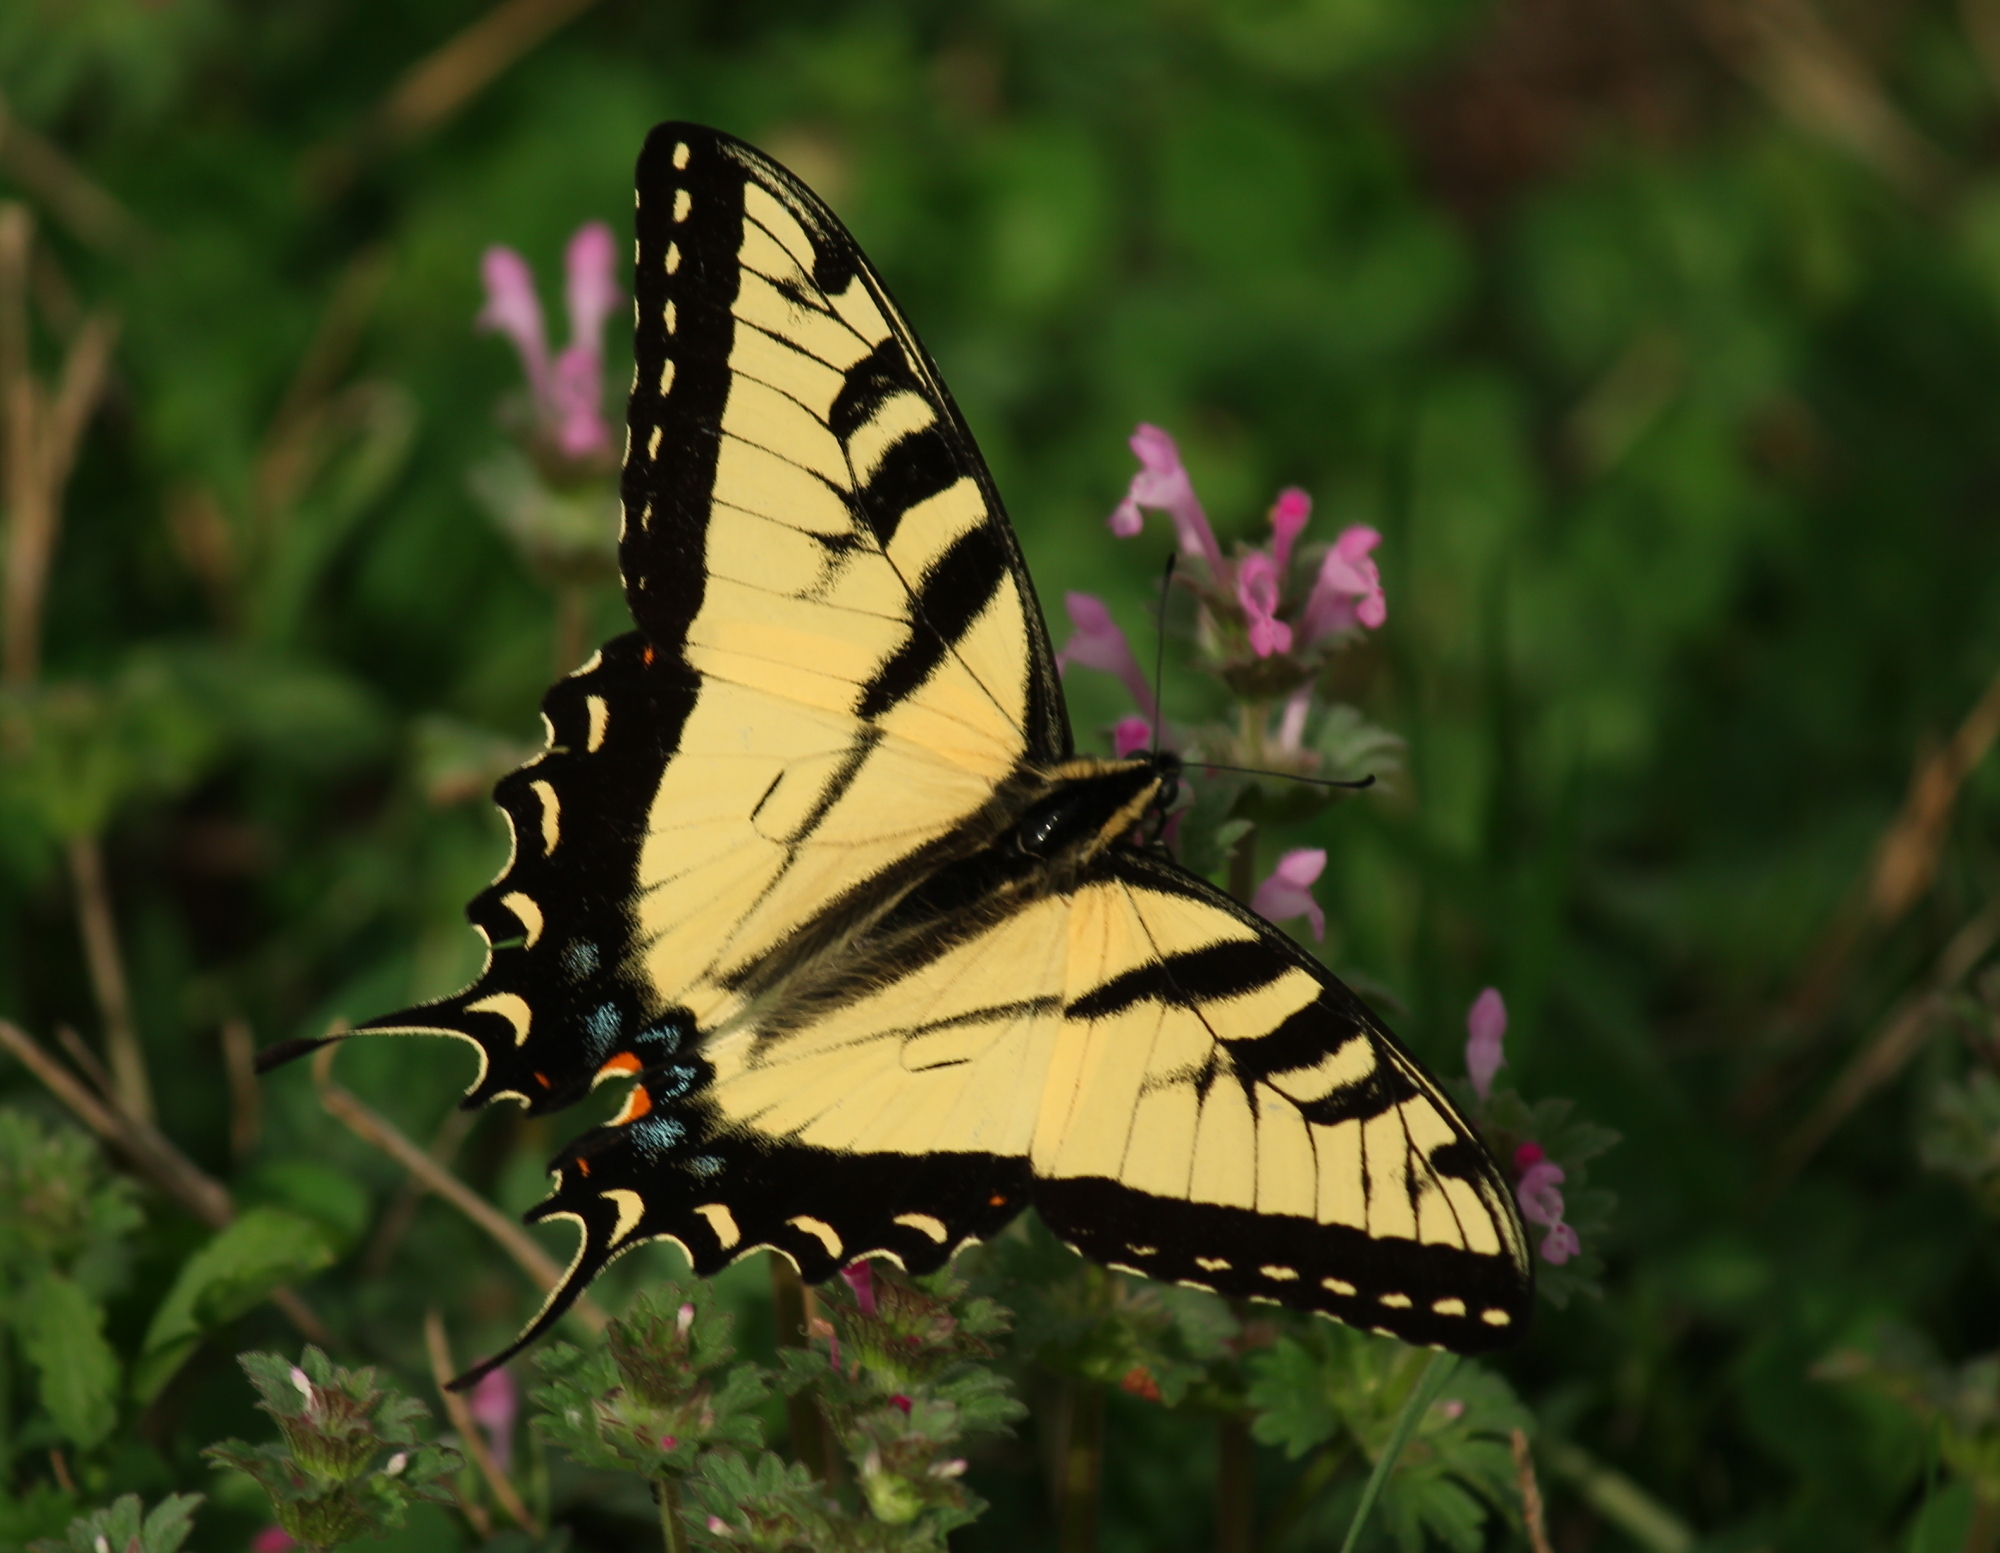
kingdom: Animalia
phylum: Arthropoda
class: Insecta
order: Lepidoptera
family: Papilionidae
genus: Papilio
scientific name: Papilio glaucus
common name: Tiger swallowtail
